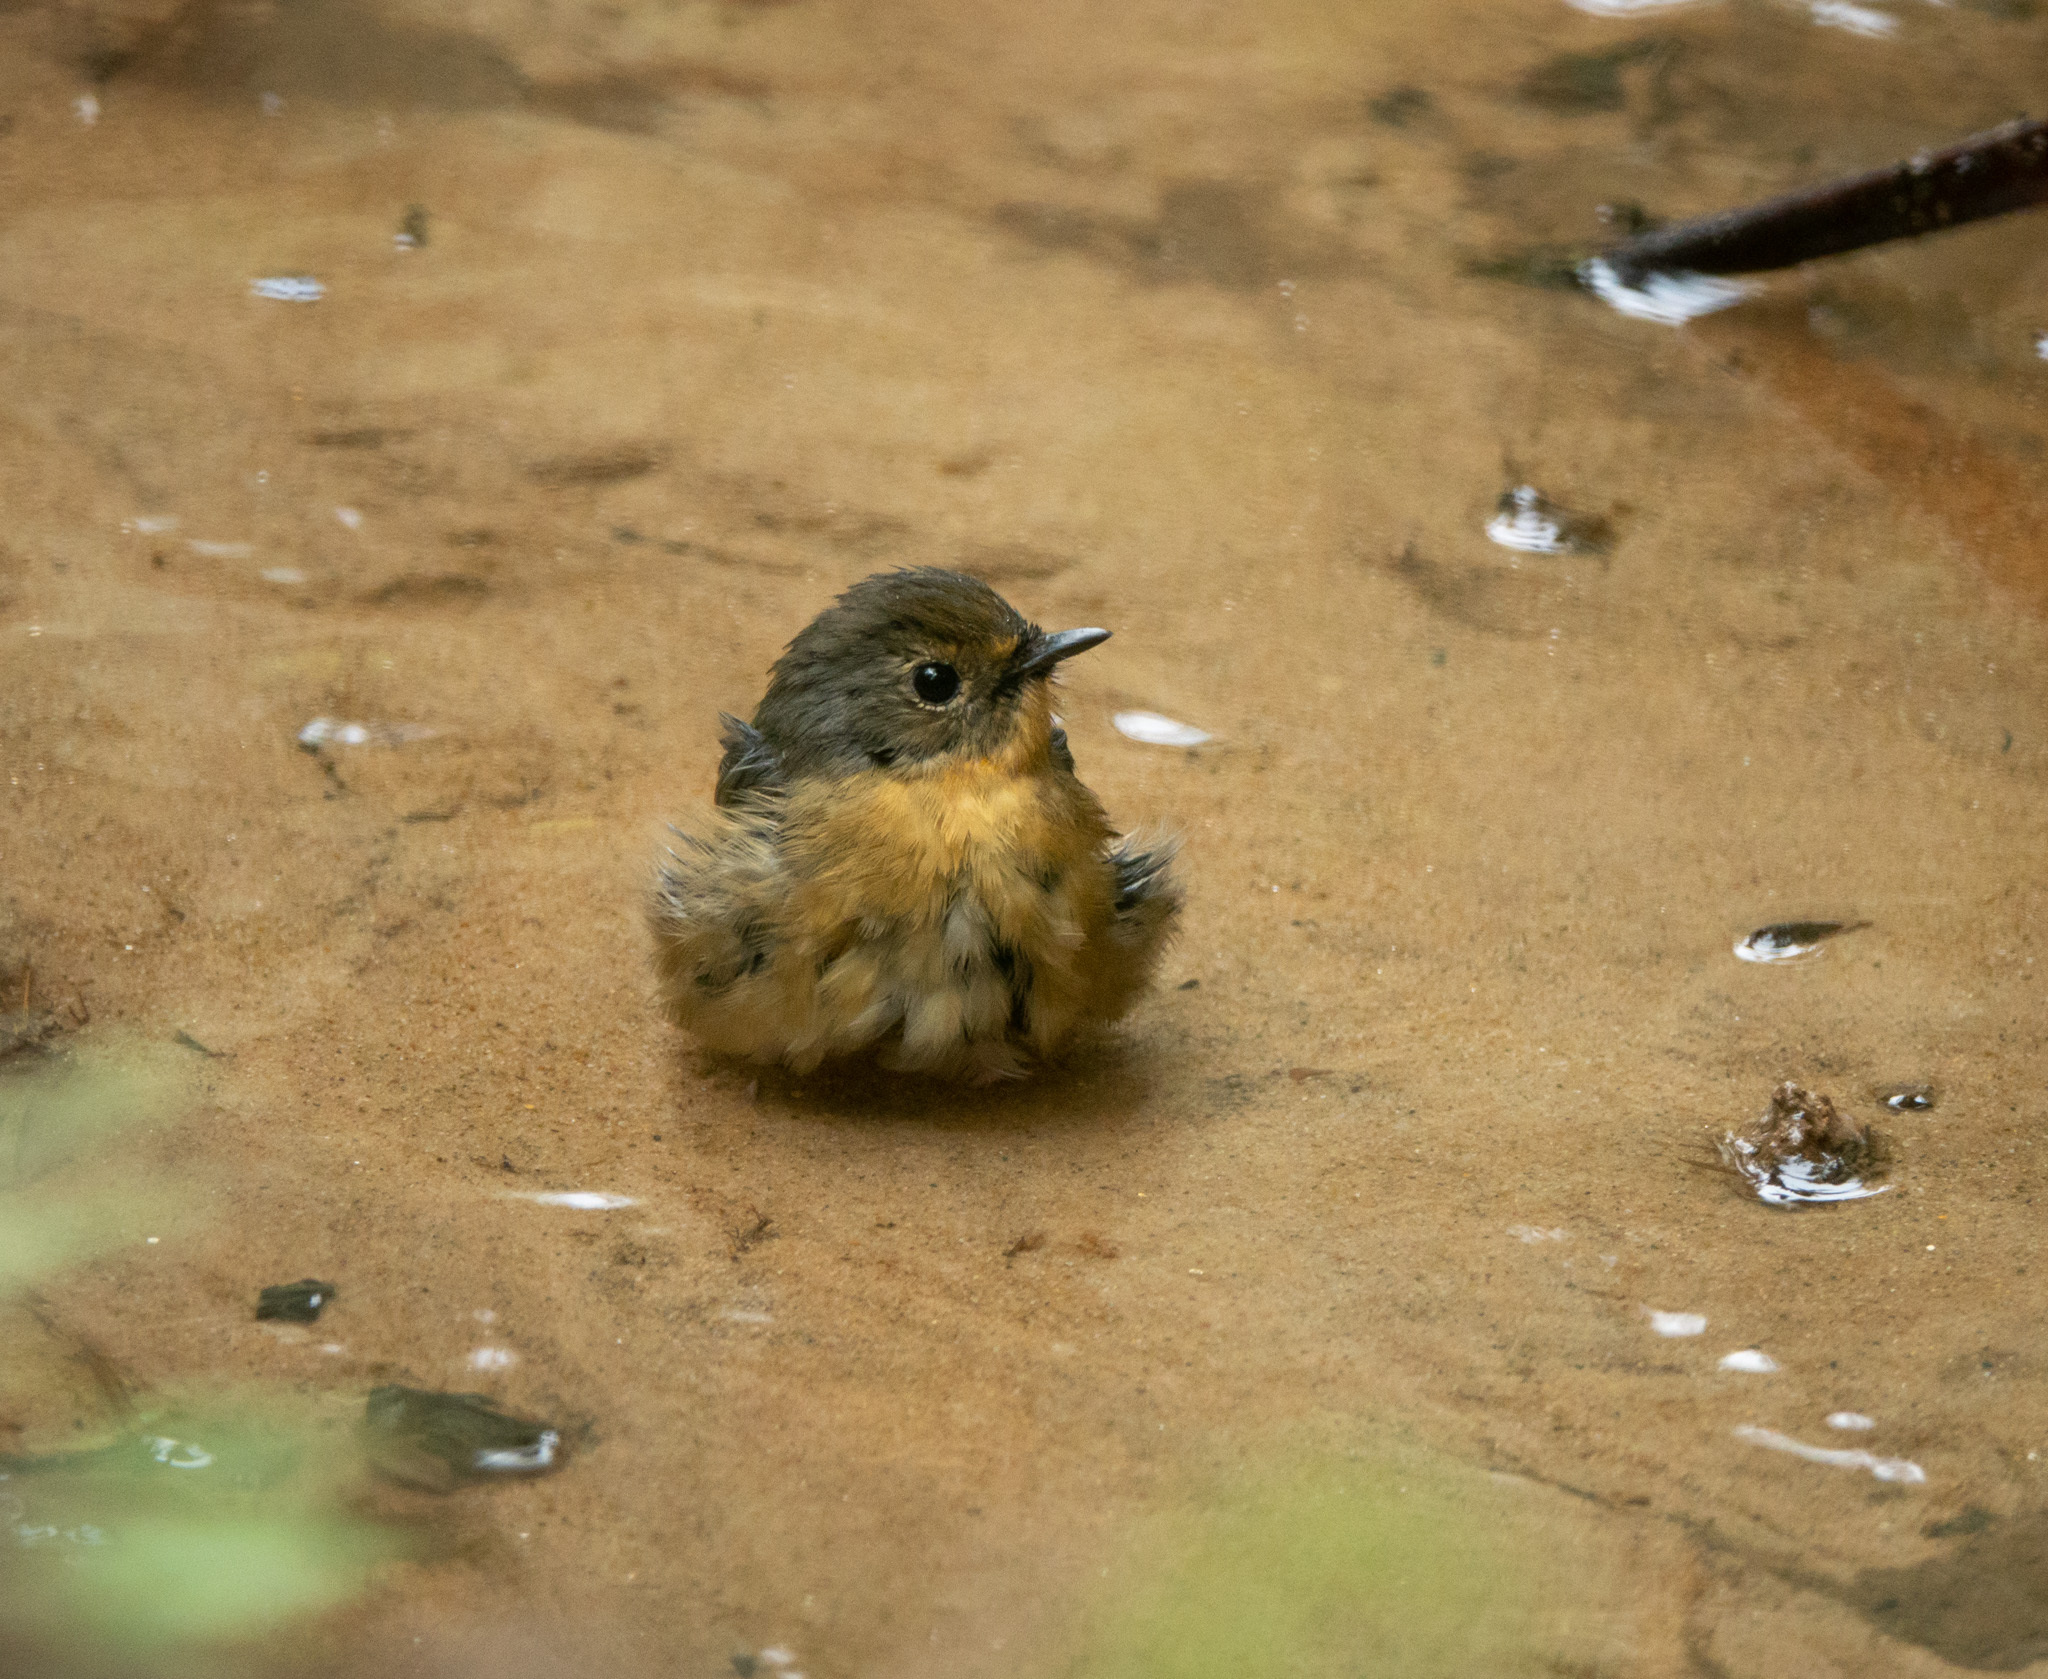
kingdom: Animalia
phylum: Chordata
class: Aves
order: Passeriformes
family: Muscicapidae
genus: Ficedula
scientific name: Ficedula hyperythra
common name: Snowy-browed flycatcher
